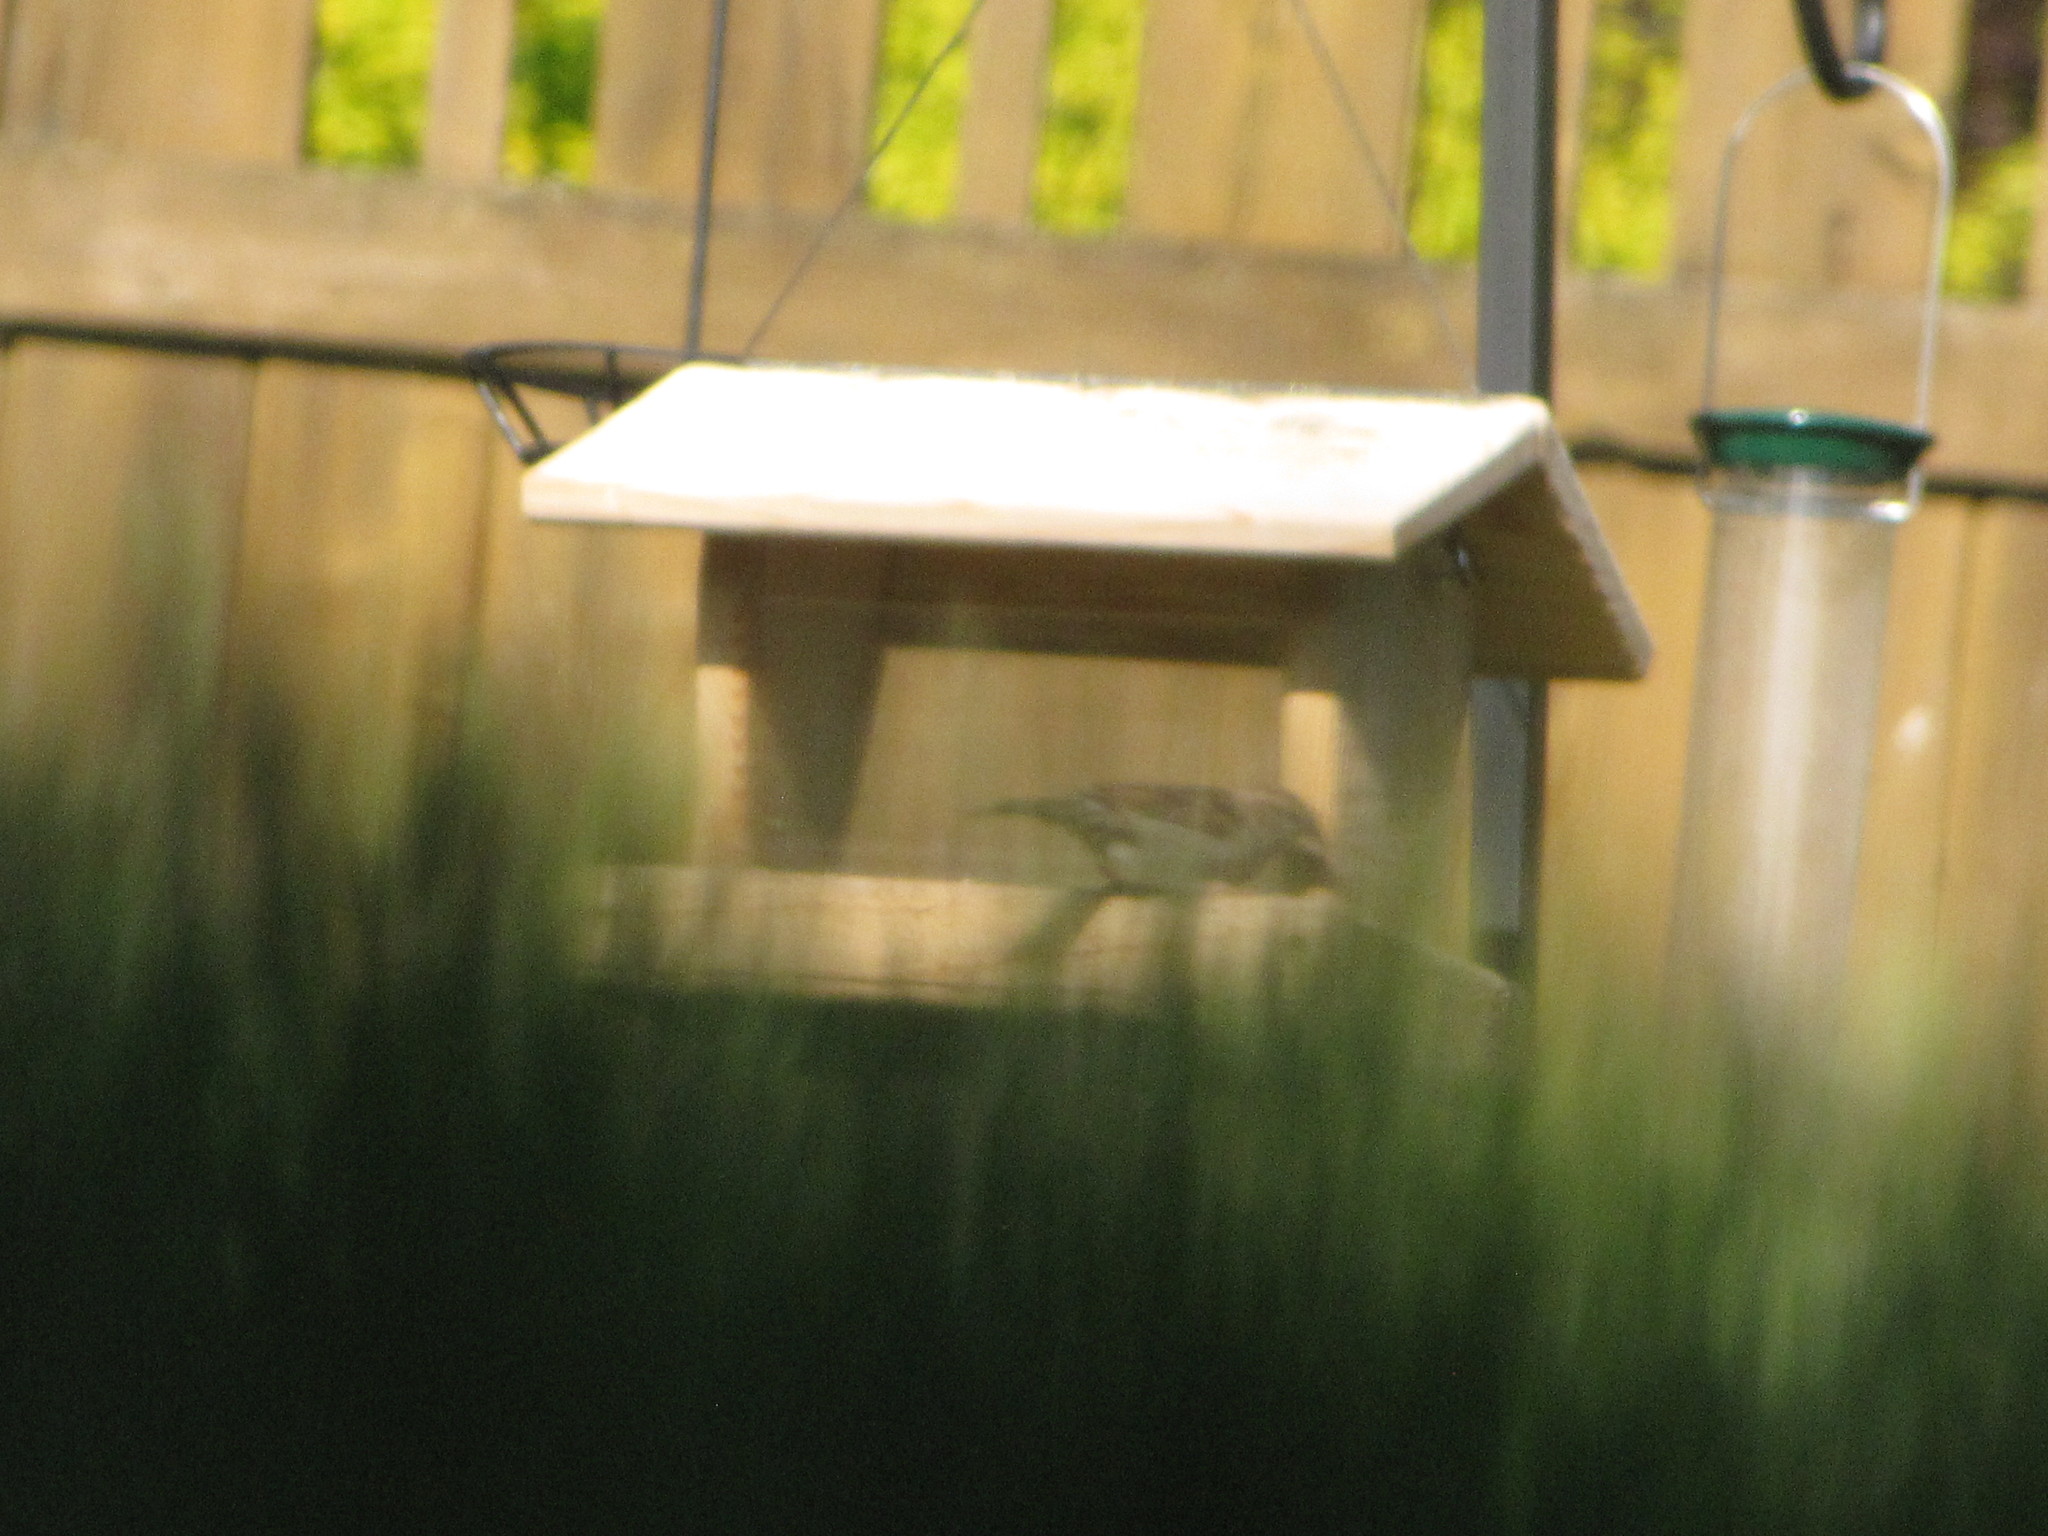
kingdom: Animalia
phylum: Chordata
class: Aves
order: Passeriformes
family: Passeridae
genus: Passer
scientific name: Passer domesticus
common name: House sparrow
